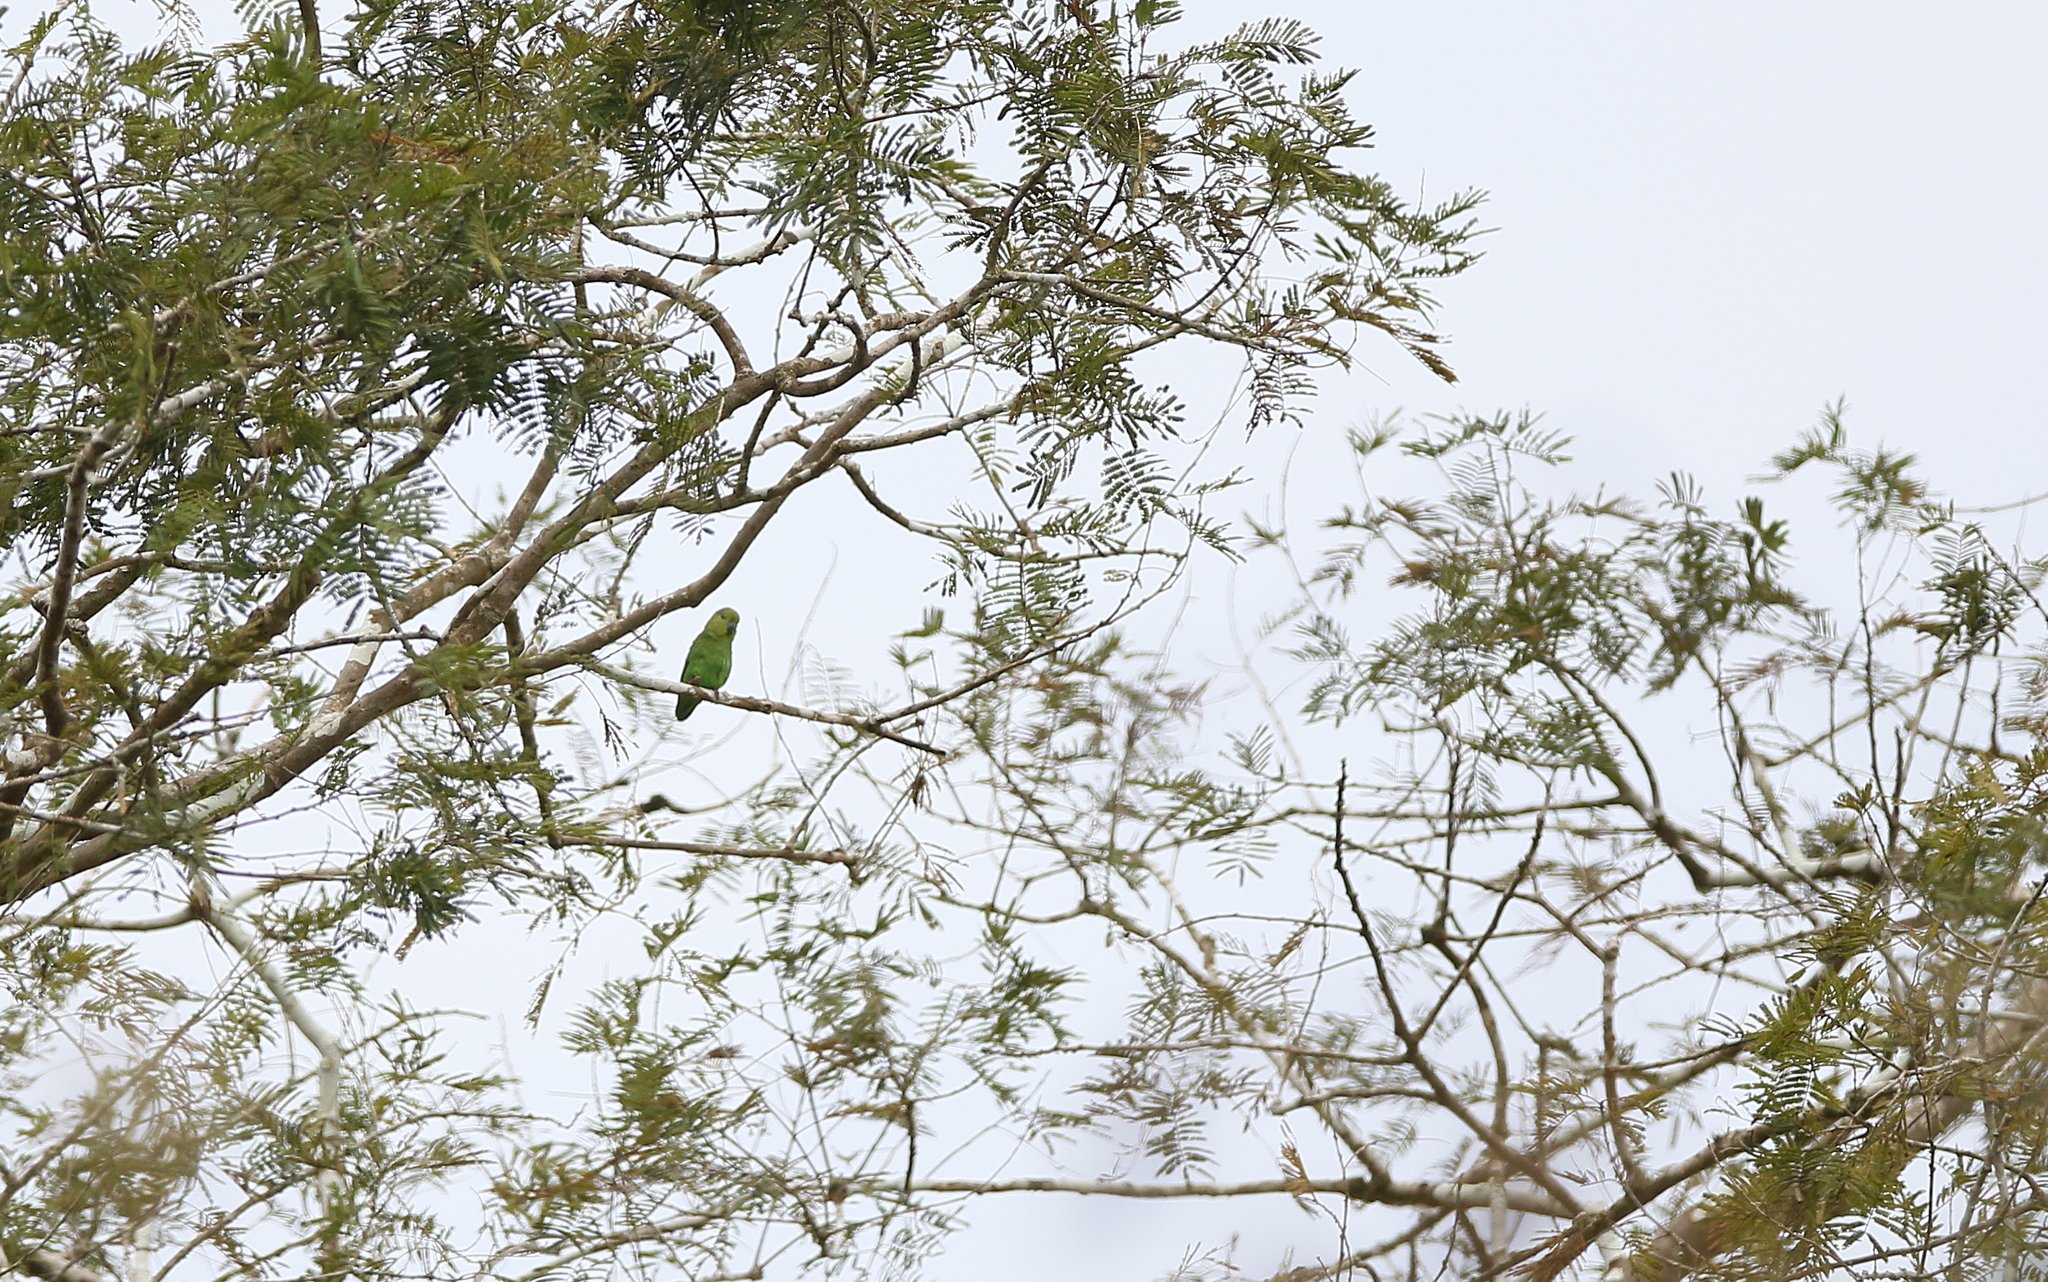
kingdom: Animalia
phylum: Chordata
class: Aves
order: Psittaciformes
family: Psittacidae
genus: Forpus
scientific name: Forpus modestus
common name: Dusky-billed parrotlet
